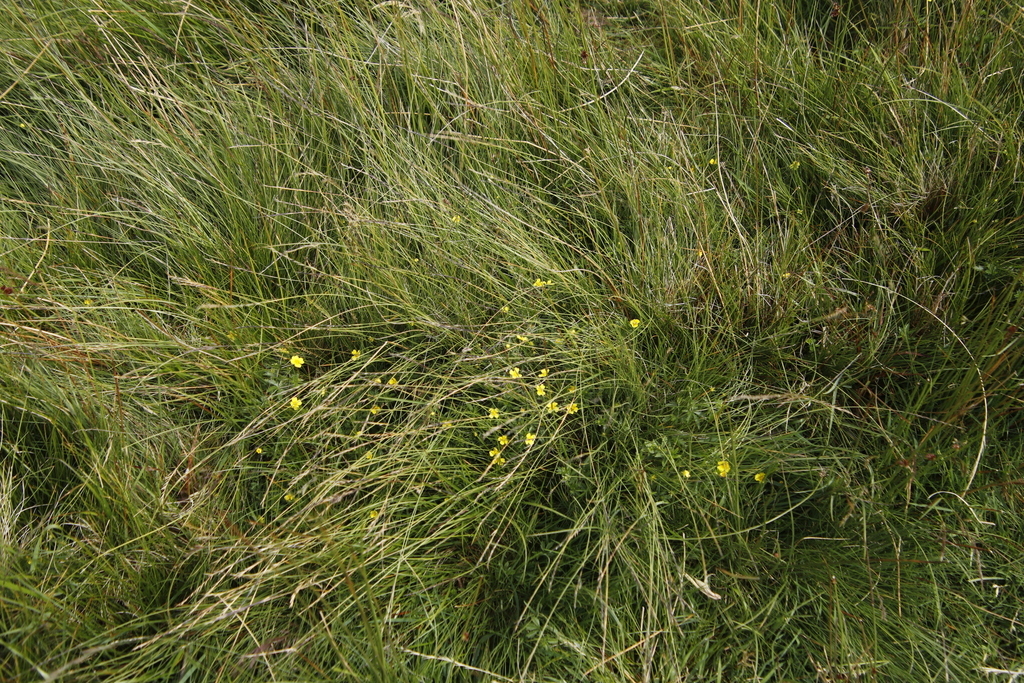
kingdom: Plantae
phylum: Tracheophyta
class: Magnoliopsida
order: Rosales
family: Rosaceae
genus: Potentilla
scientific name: Potentilla erecta
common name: Tormentil
